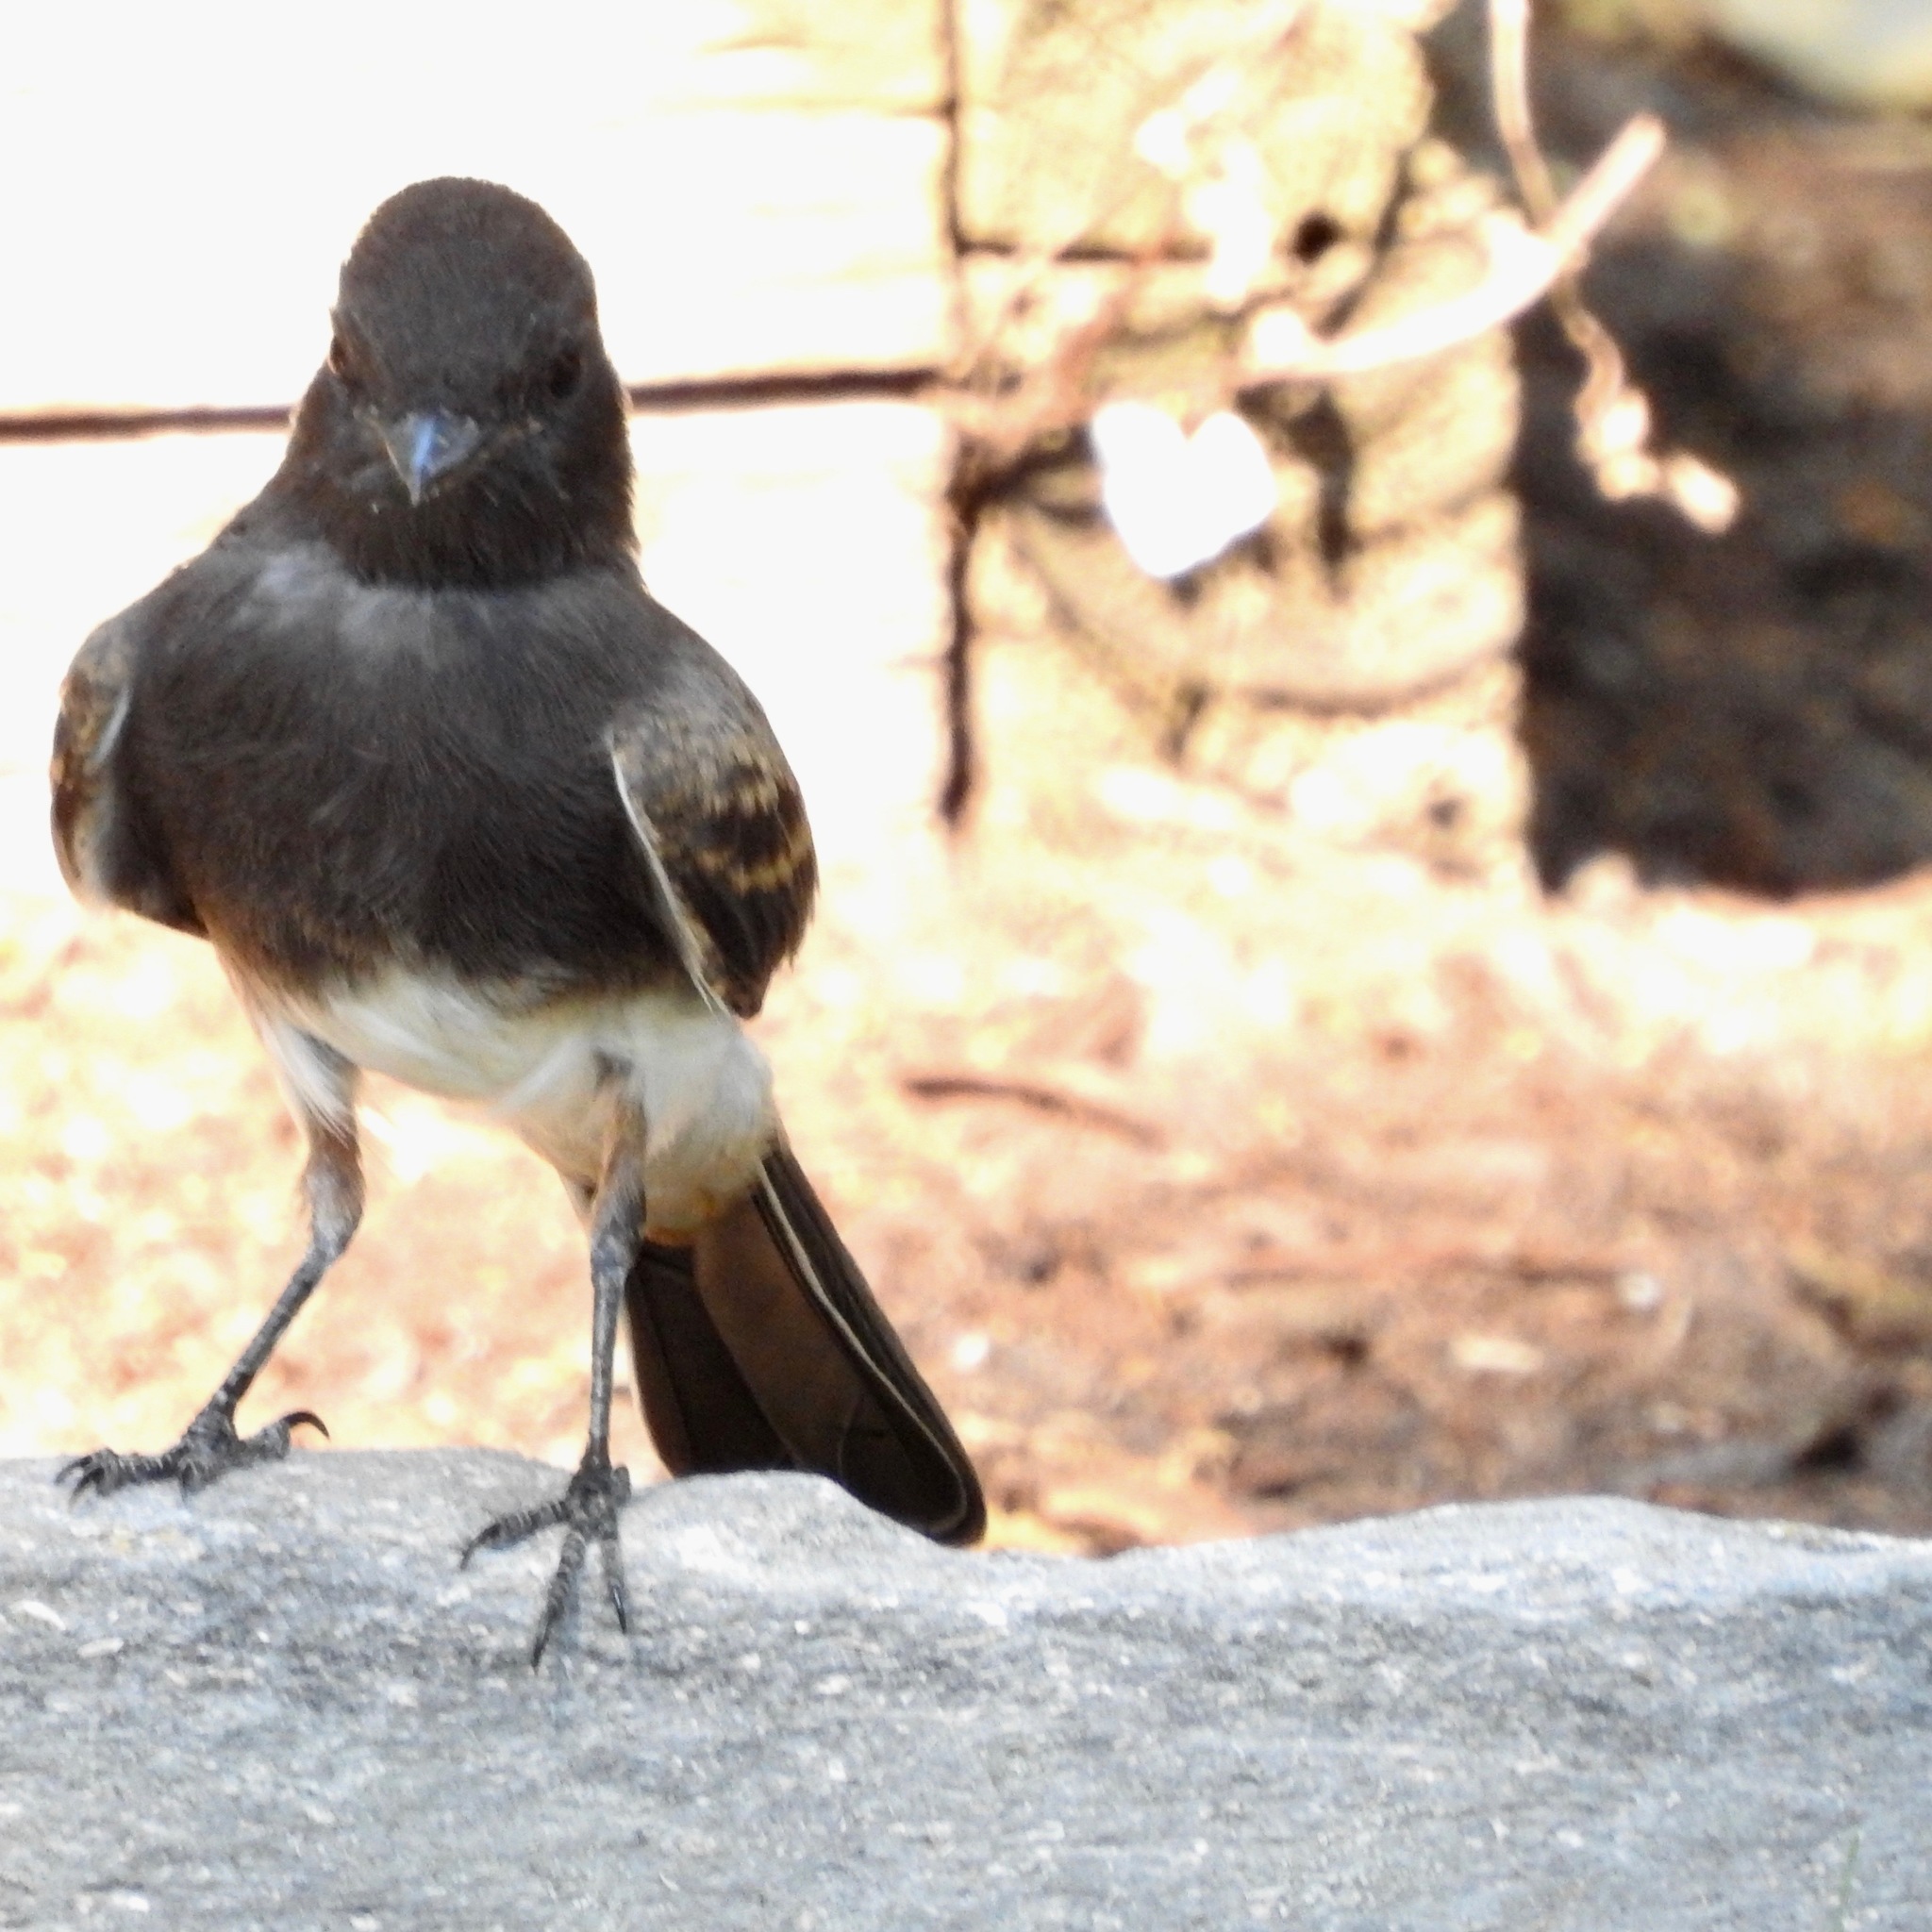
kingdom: Animalia
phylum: Chordata
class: Aves
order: Passeriformes
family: Tyrannidae
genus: Sayornis
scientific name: Sayornis nigricans
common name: Black phoebe
